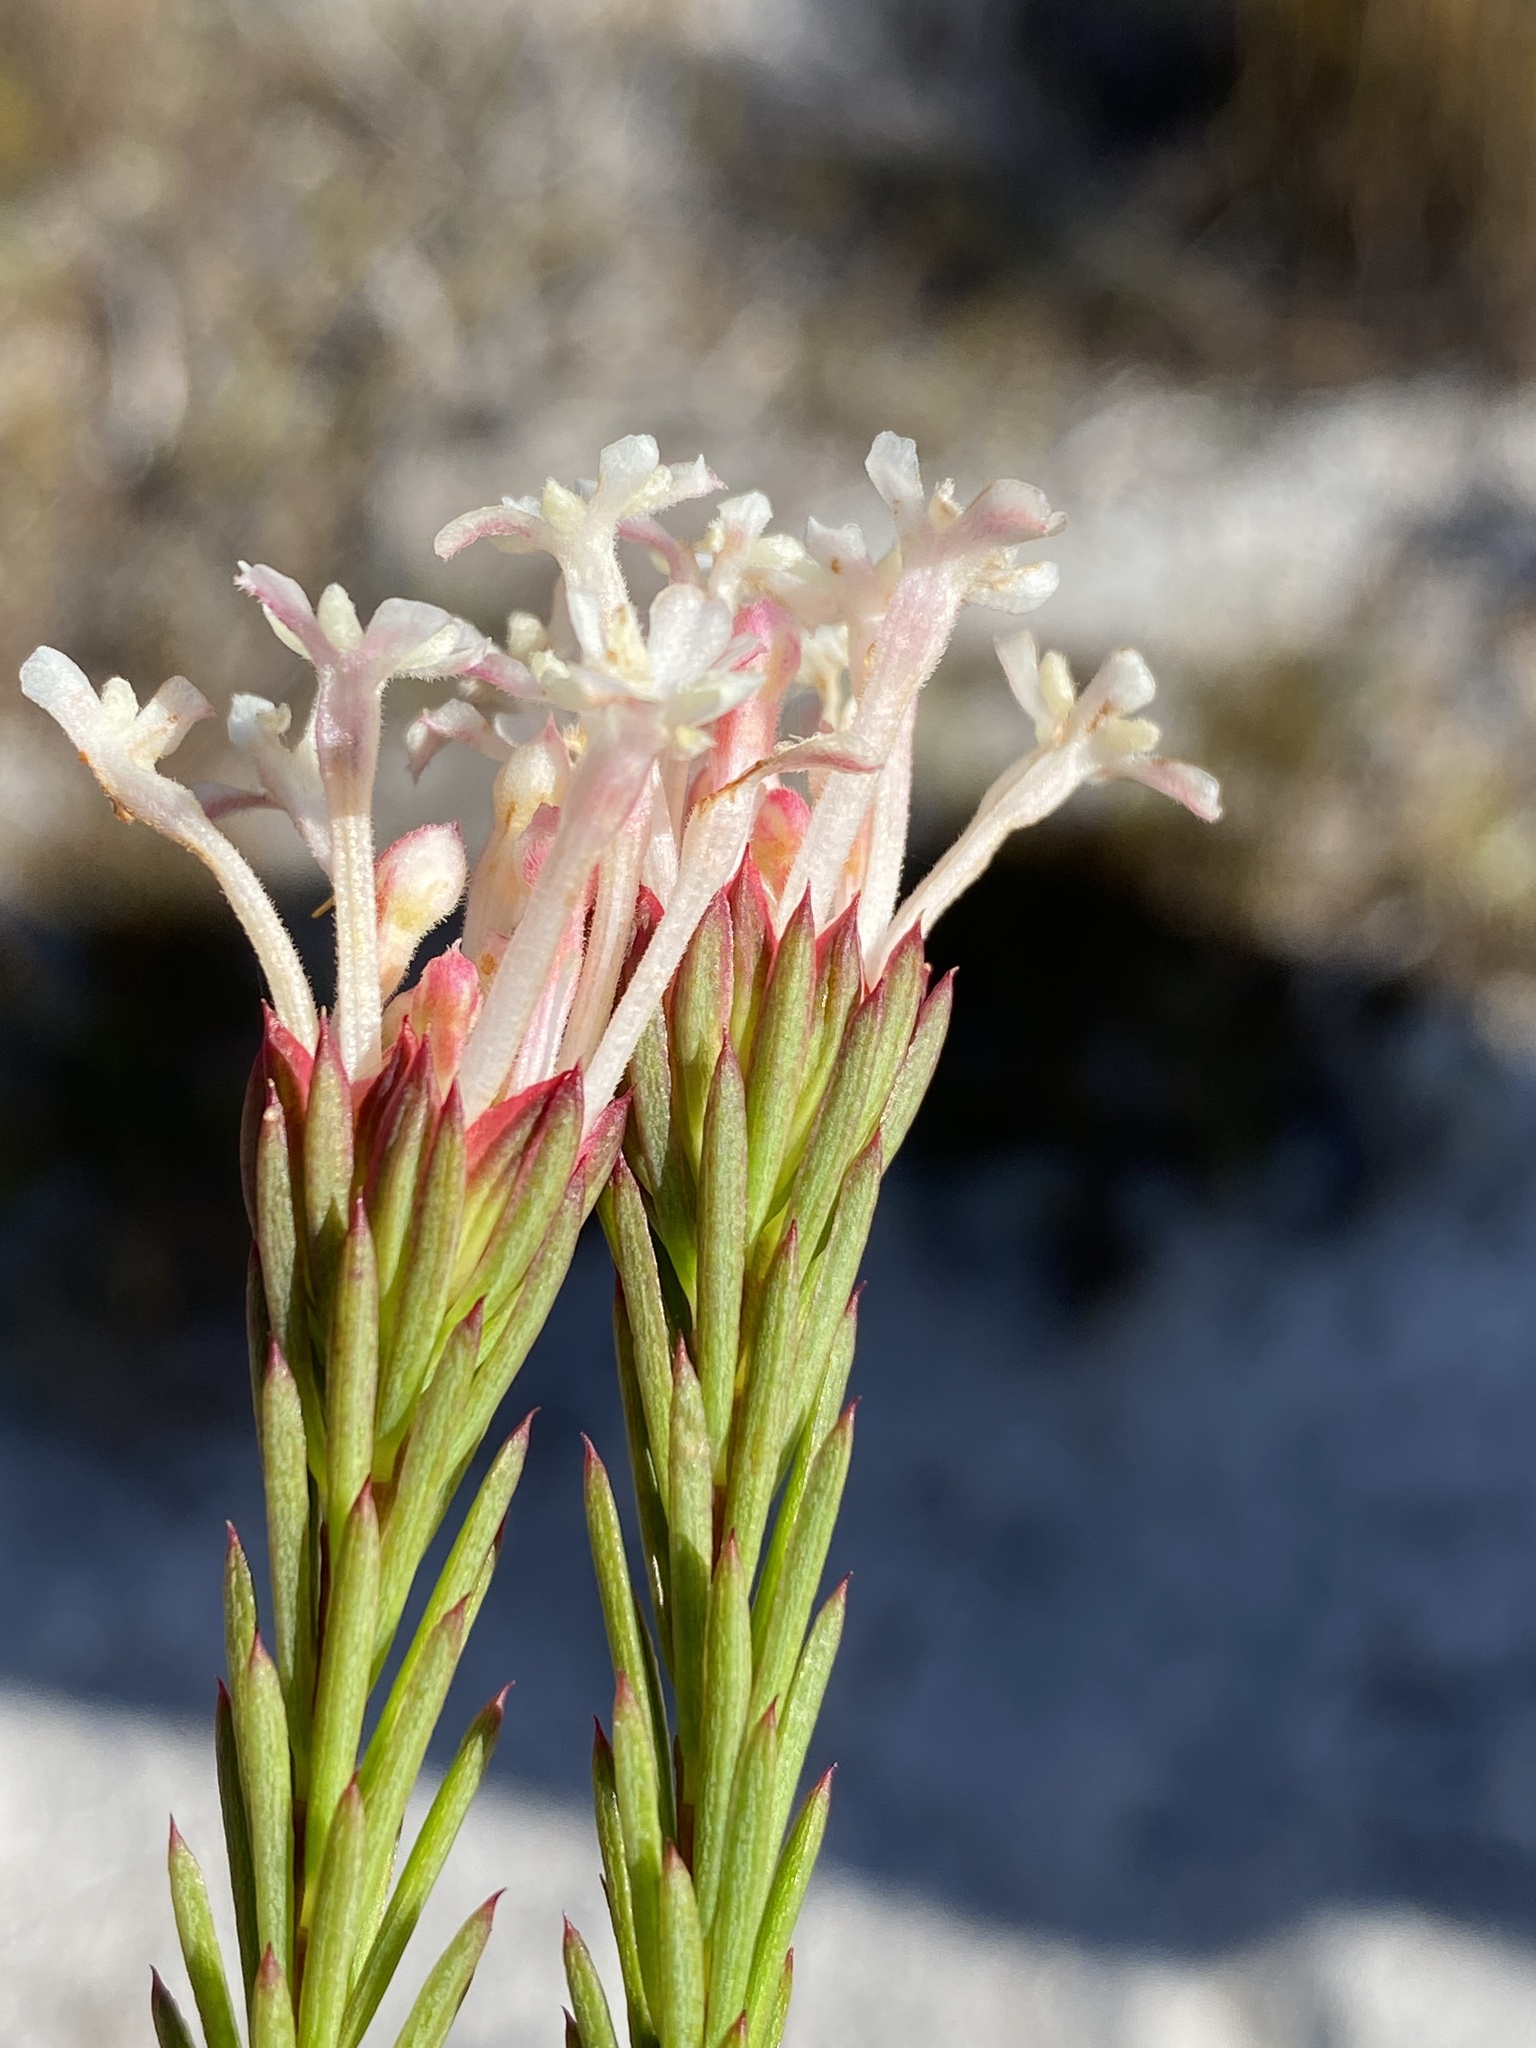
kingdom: Plantae
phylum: Tracheophyta
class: Magnoliopsida
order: Malvales
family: Thymelaeaceae
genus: Gnidia
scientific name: Gnidia pinifolia
